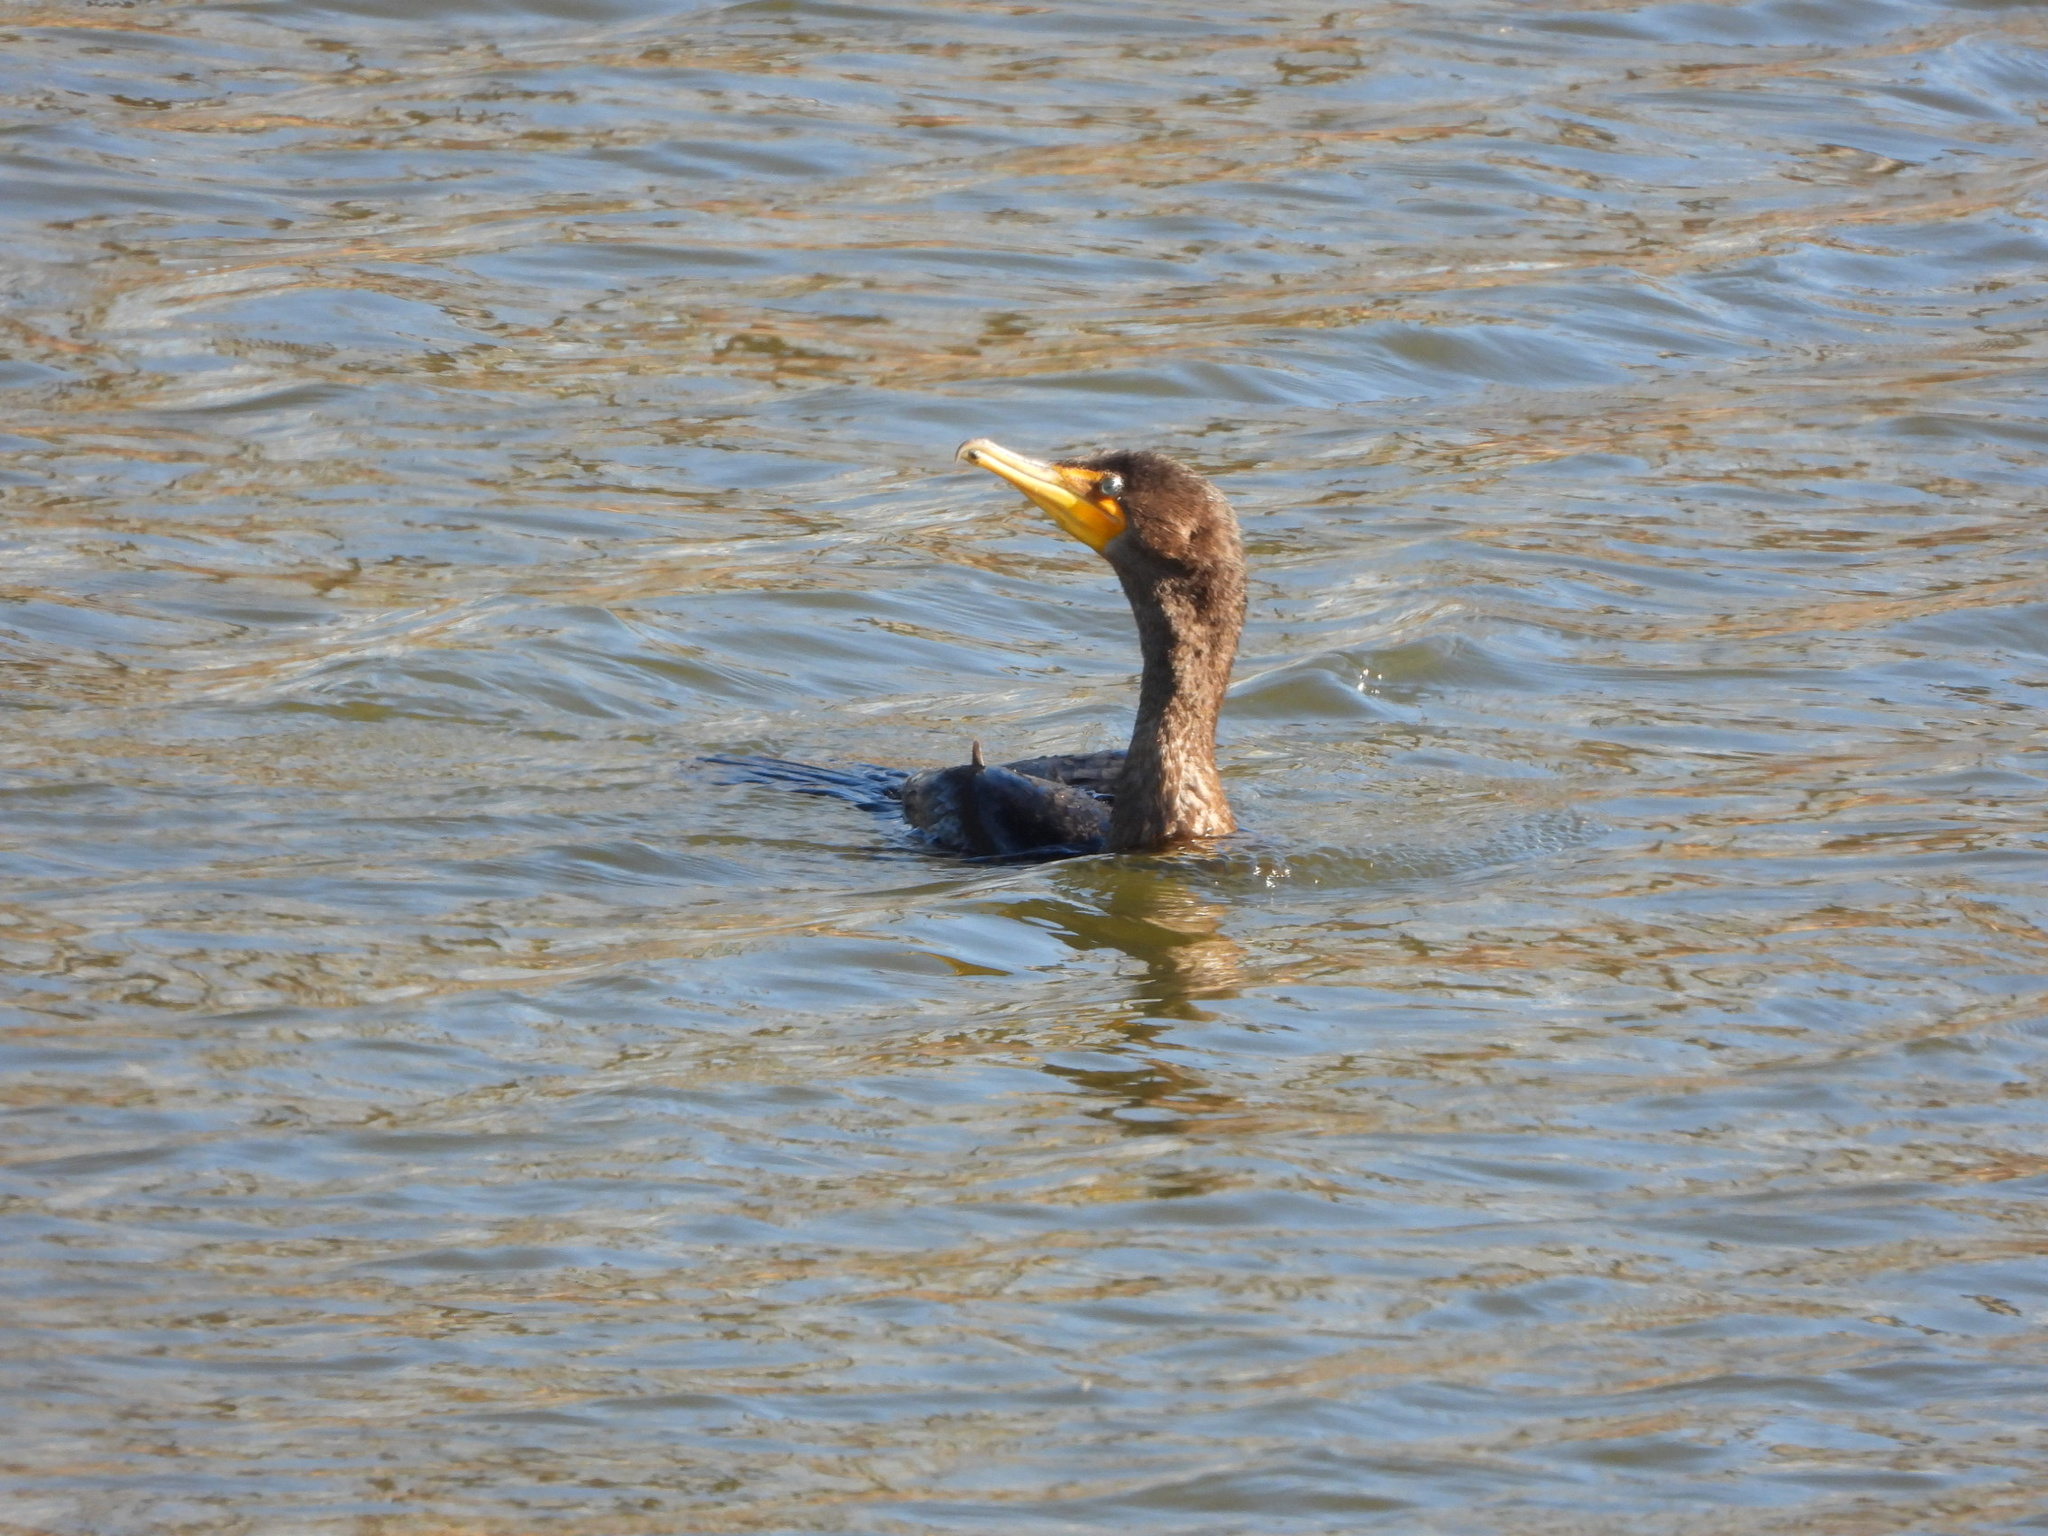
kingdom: Animalia
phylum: Chordata
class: Aves
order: Suliformes
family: Phalacrocoracidae
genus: Phalacrocorax
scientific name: Phalacrocorax auritus
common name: Double-crested cormorant
